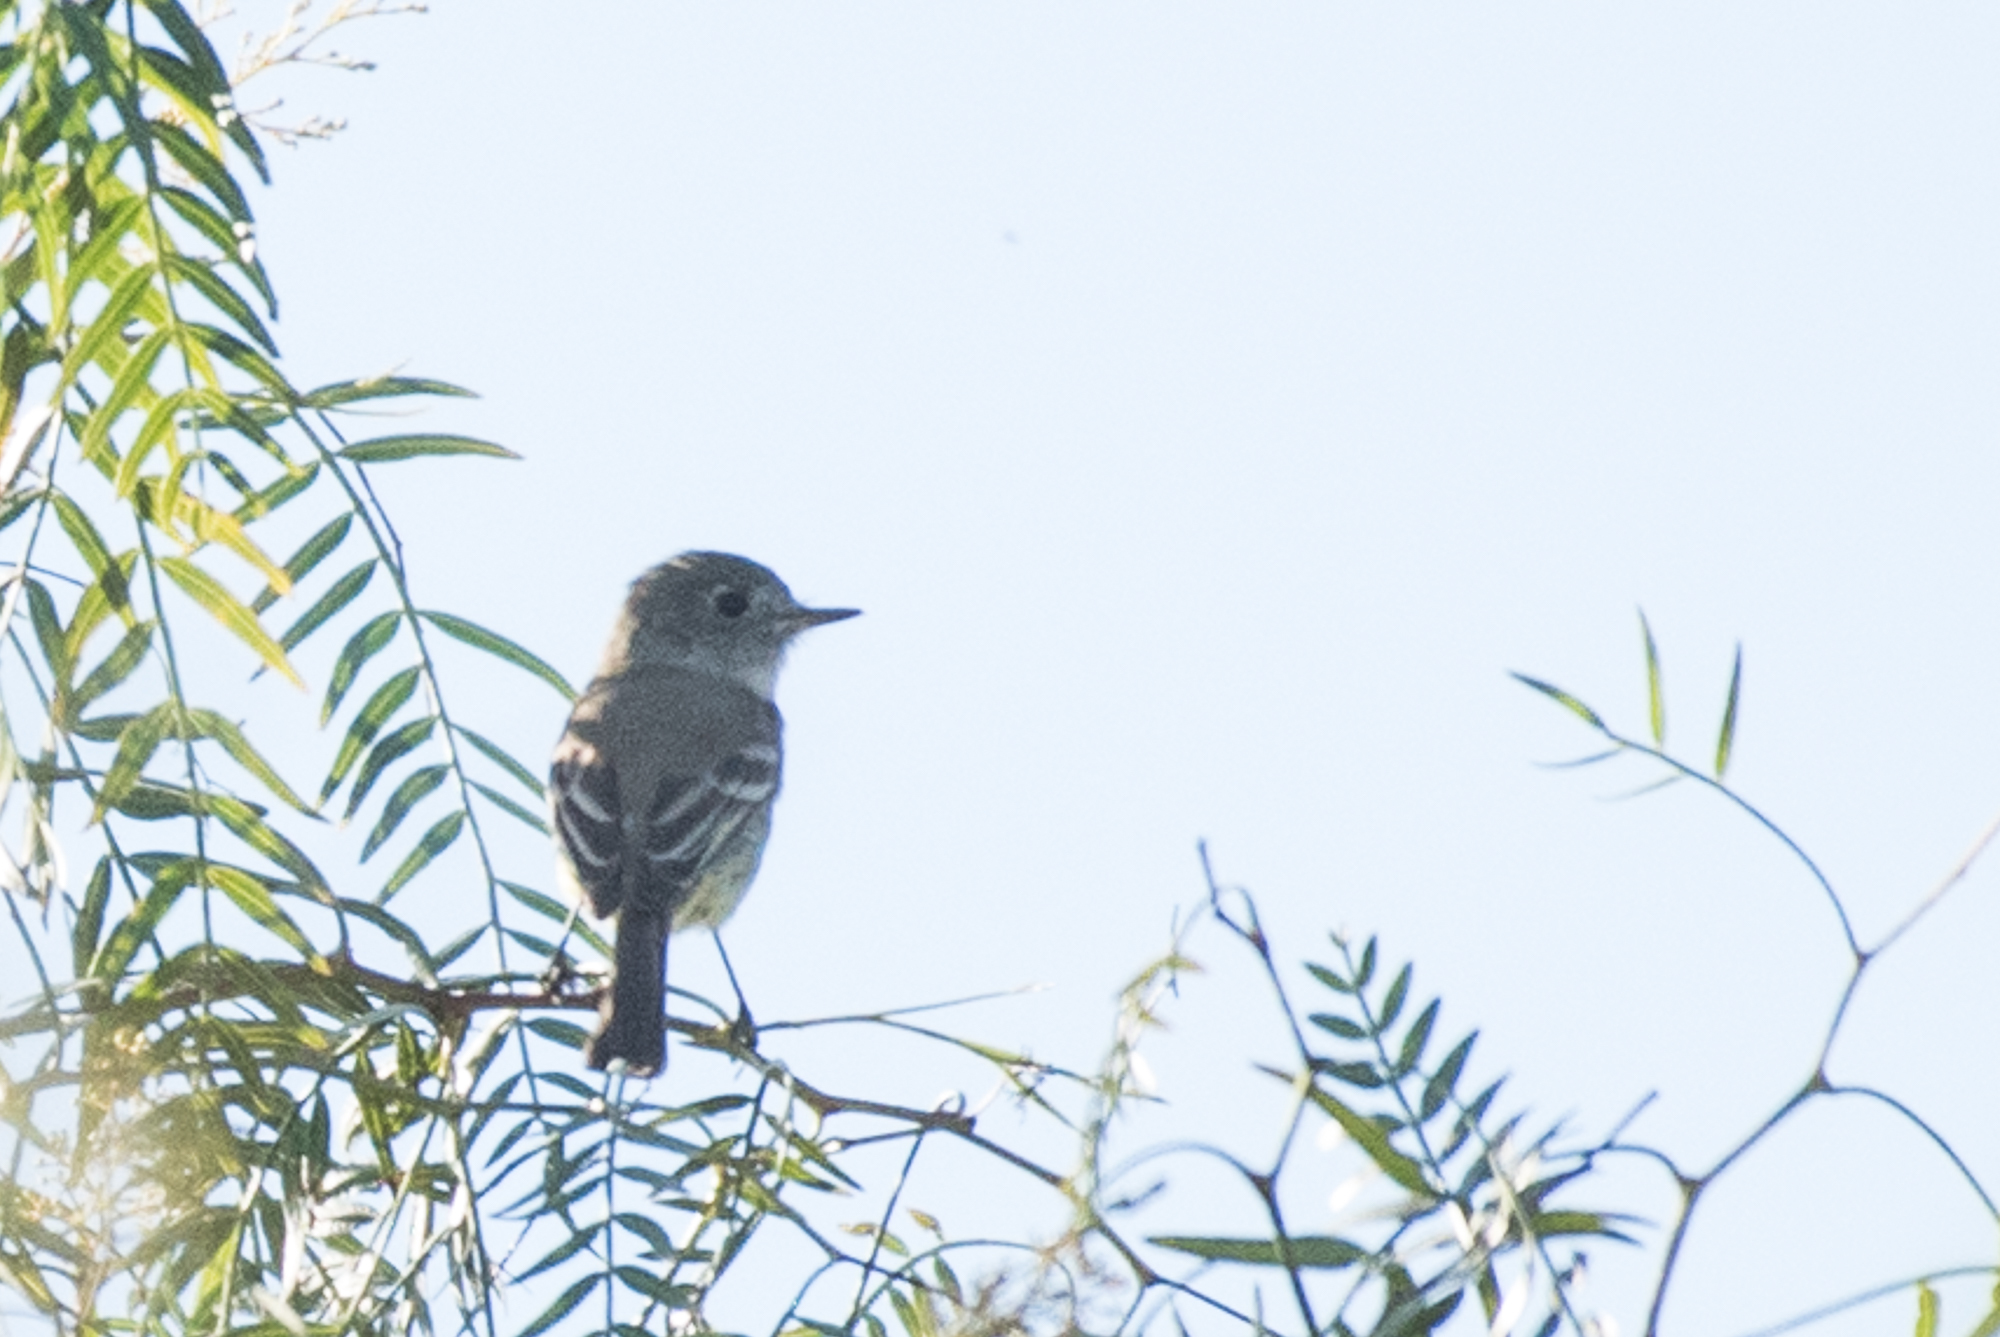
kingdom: Animalia
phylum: Chordata
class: Aves
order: Passeriformes
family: Tyrannidae
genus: Empidonax
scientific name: Empidonax oberholseri
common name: Dusky flycatcher
